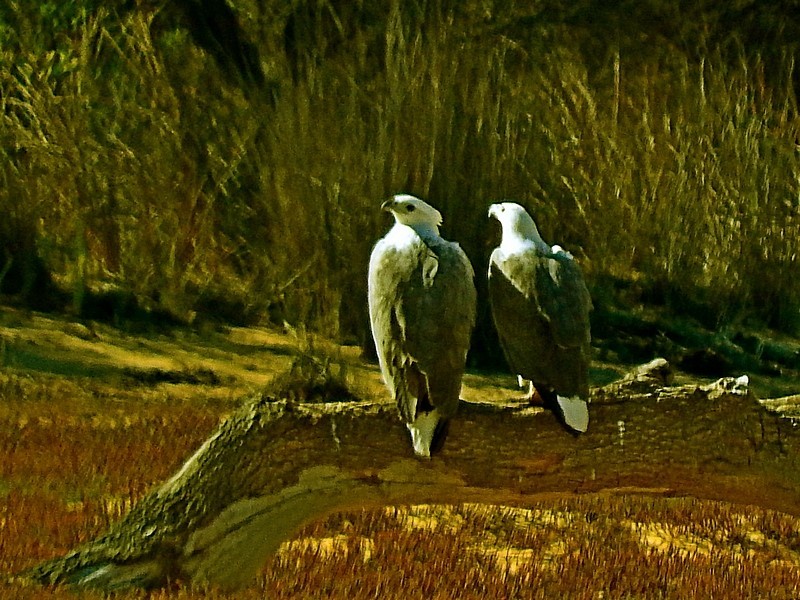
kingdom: Animalia
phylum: Chordata
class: Aves
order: Accipitriformes
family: Accipitridae
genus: Haliaeetus
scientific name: Haliaeetus leucogaster
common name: White-bellied sea eagle
